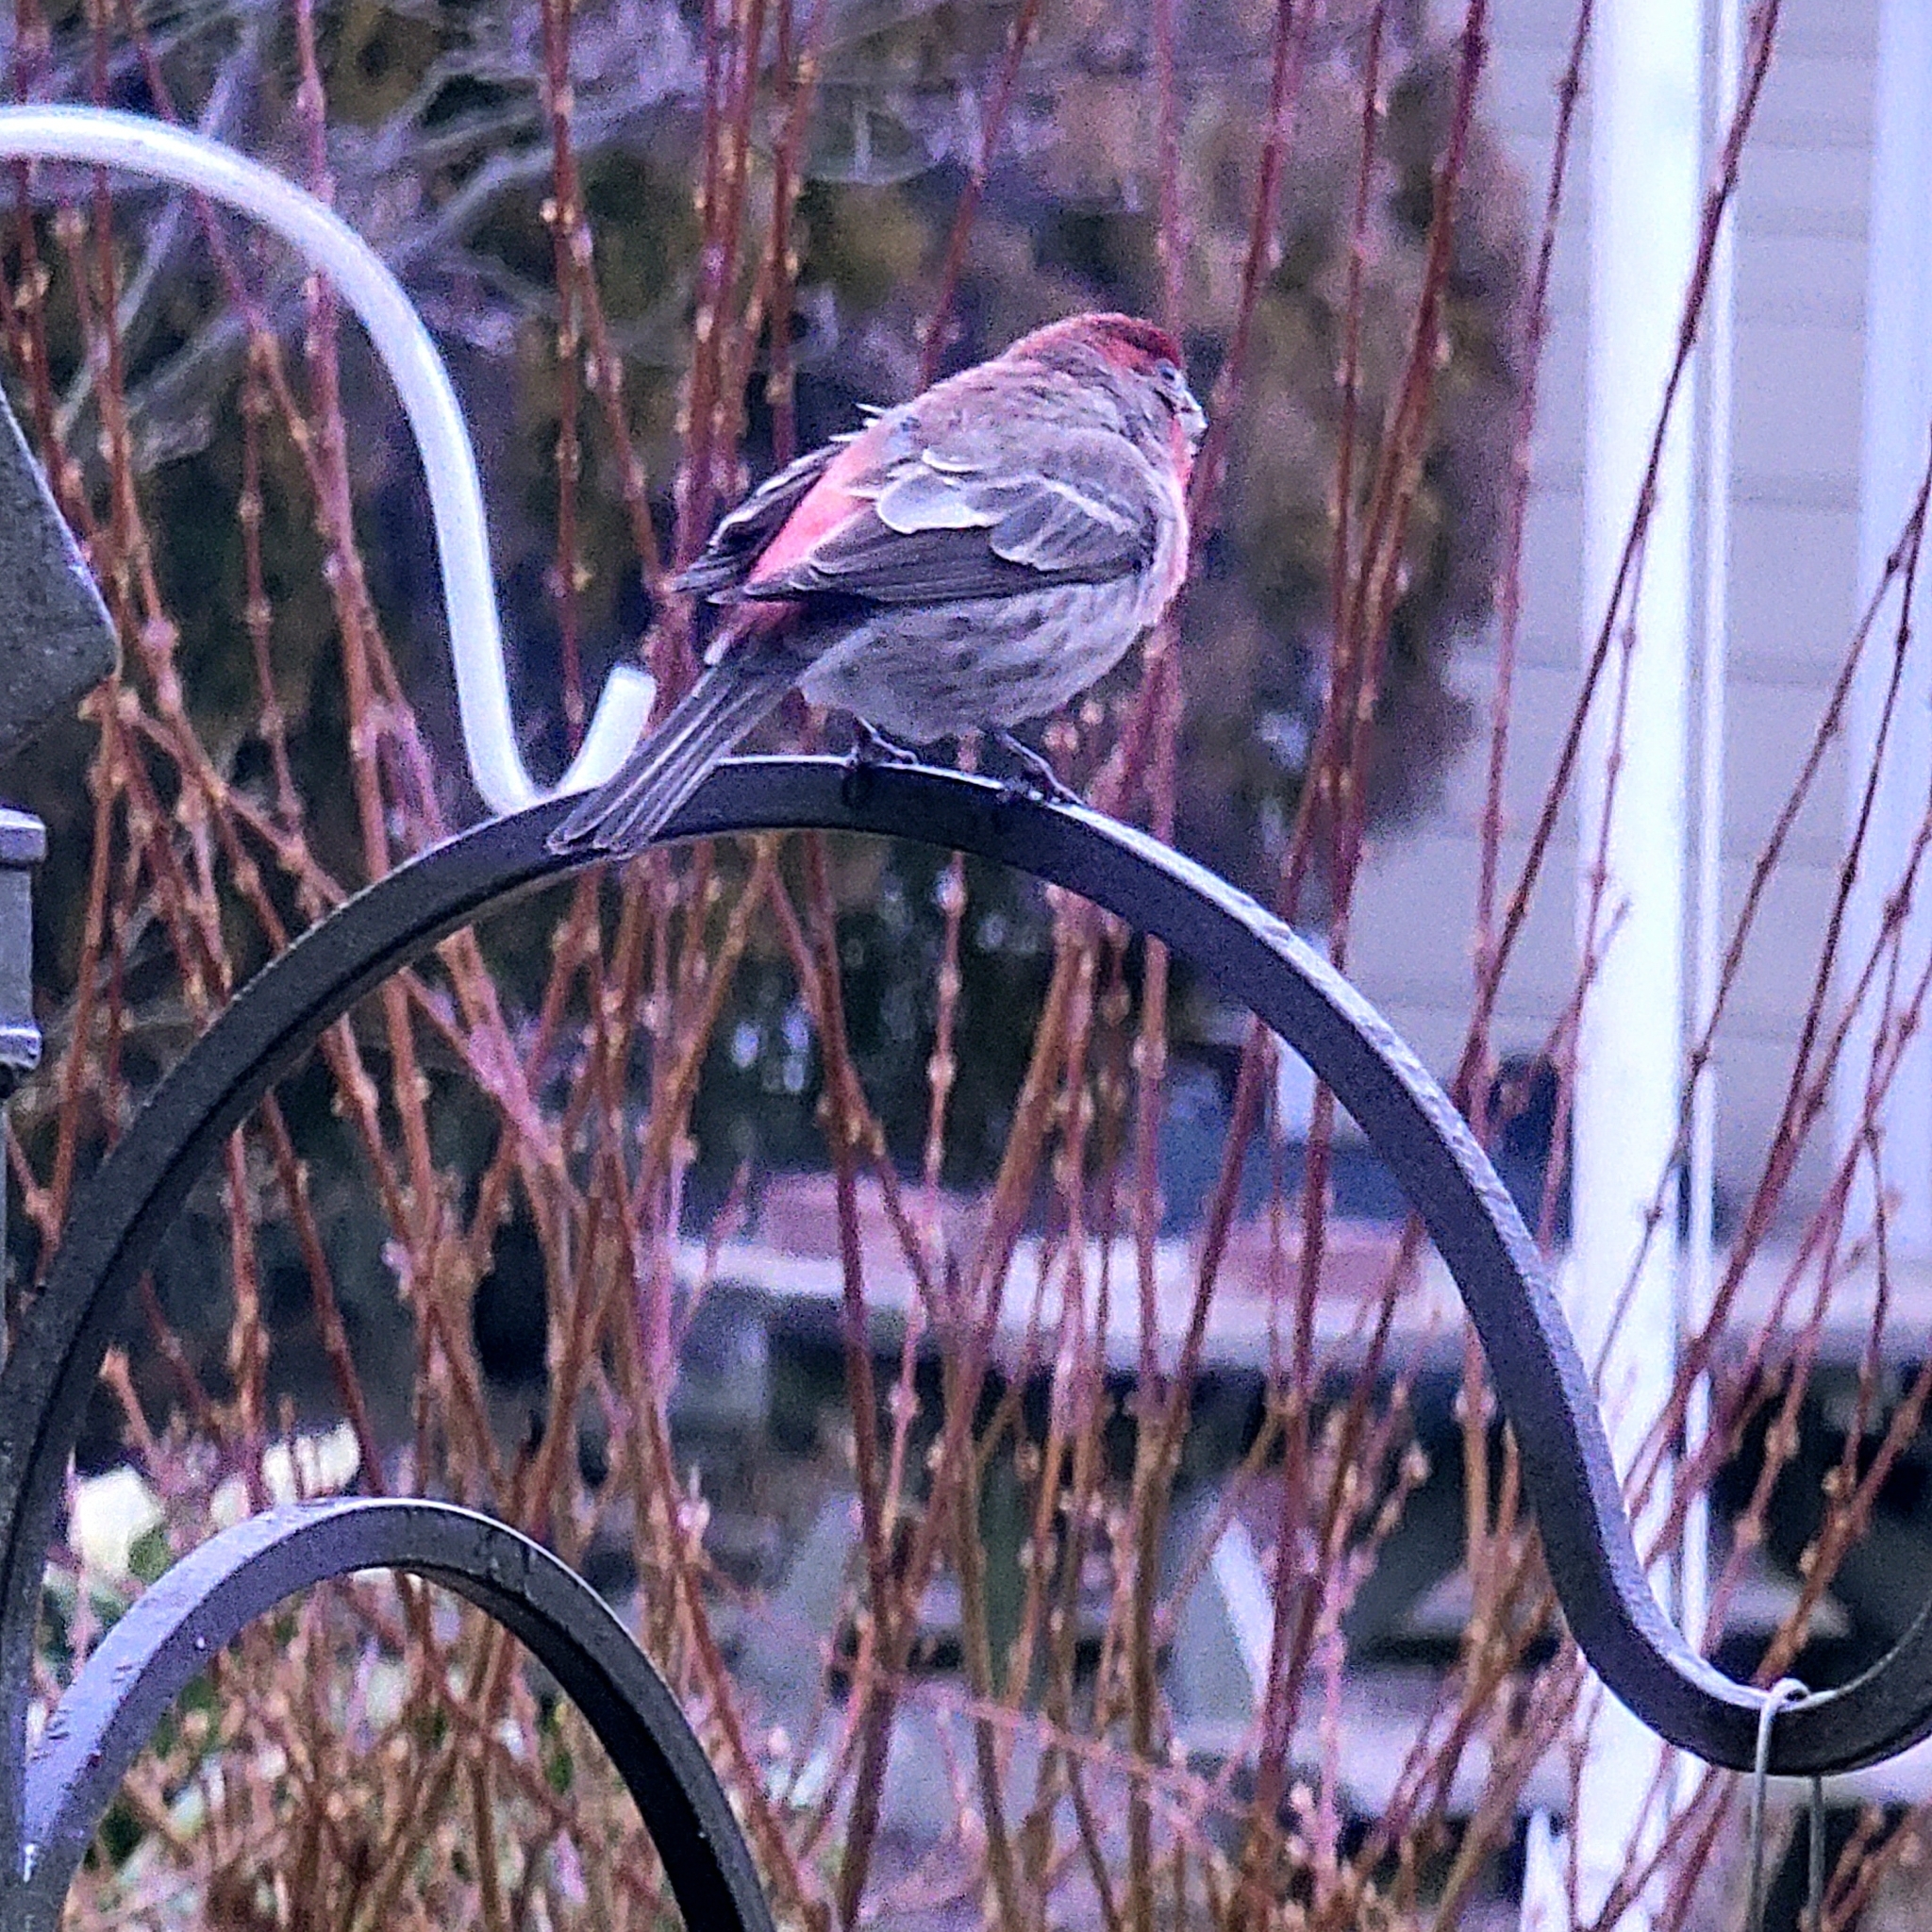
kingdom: Animalia
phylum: Chordata
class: Aves
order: Passeriformes
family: Fringillidae
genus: Haemorhous
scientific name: Haemorhous mexicanus
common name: House finch
